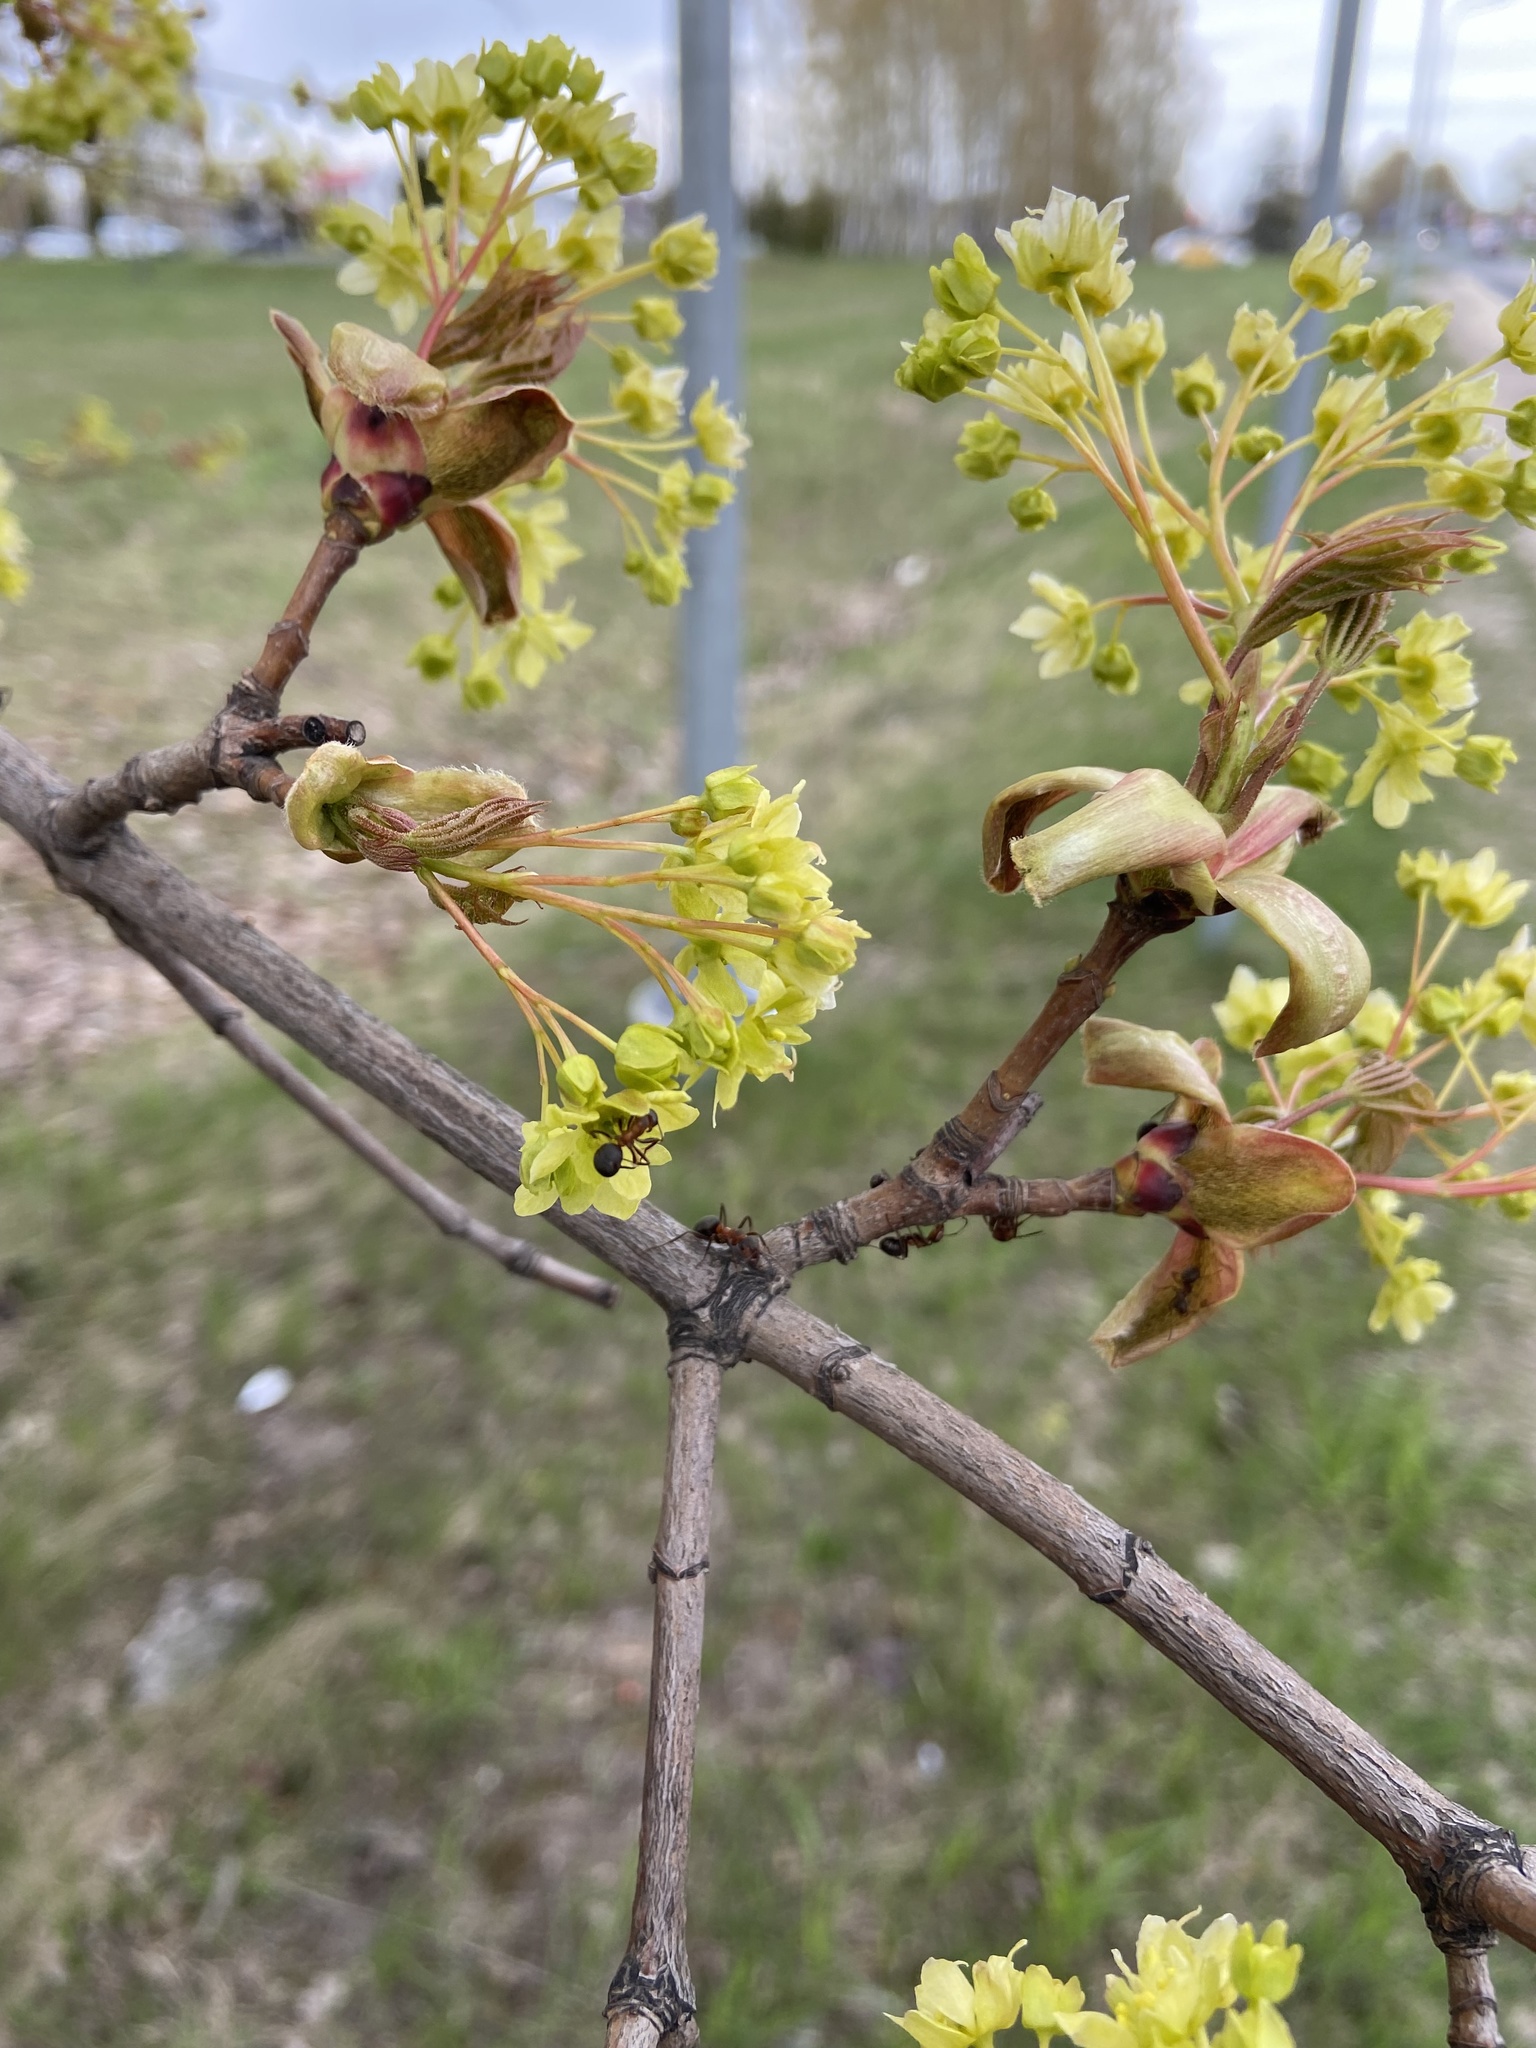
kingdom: Plantae
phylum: Tracheophyta
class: Magnoliopsida
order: Sapindales
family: Sapindaceae
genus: Acer
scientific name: Acer platanoides
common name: Norway maple
